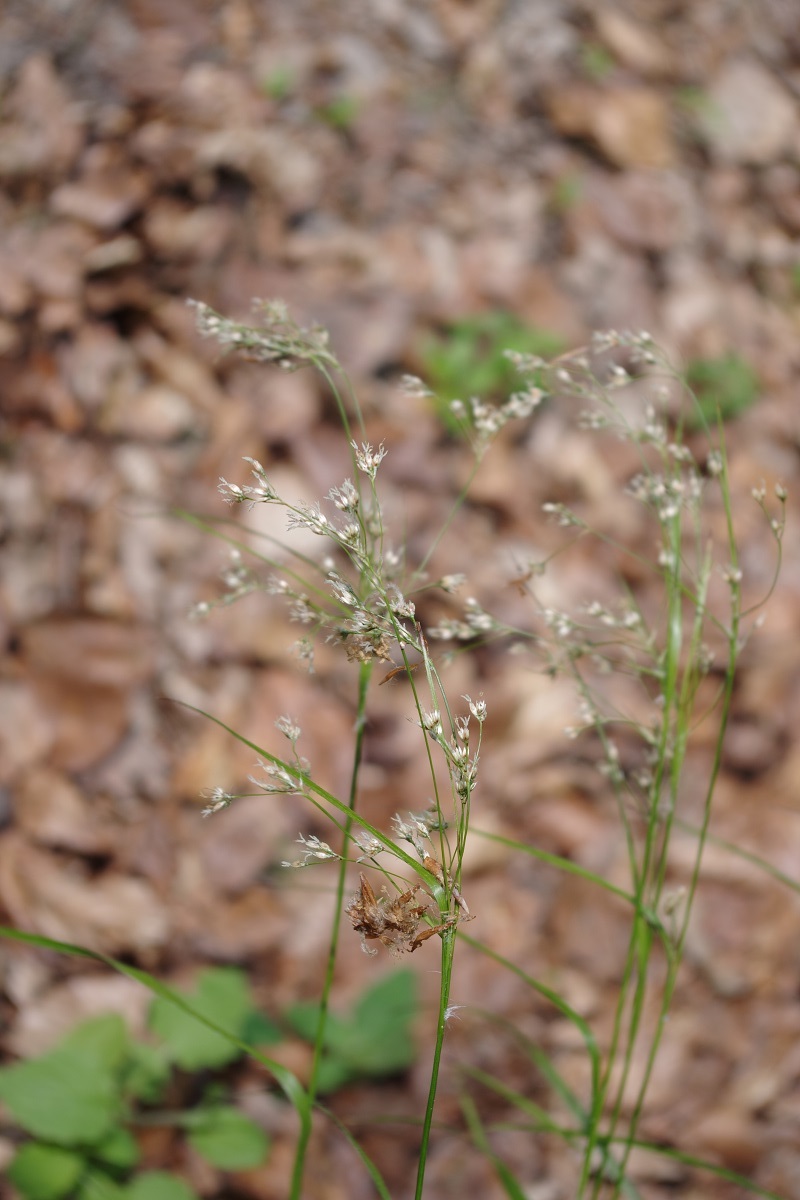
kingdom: Plantae
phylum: Tracheophyta
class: Liliopsida
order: Poales
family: Juncaceae
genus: Luzula
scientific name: Luzula luzuloides
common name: White wood-rush
